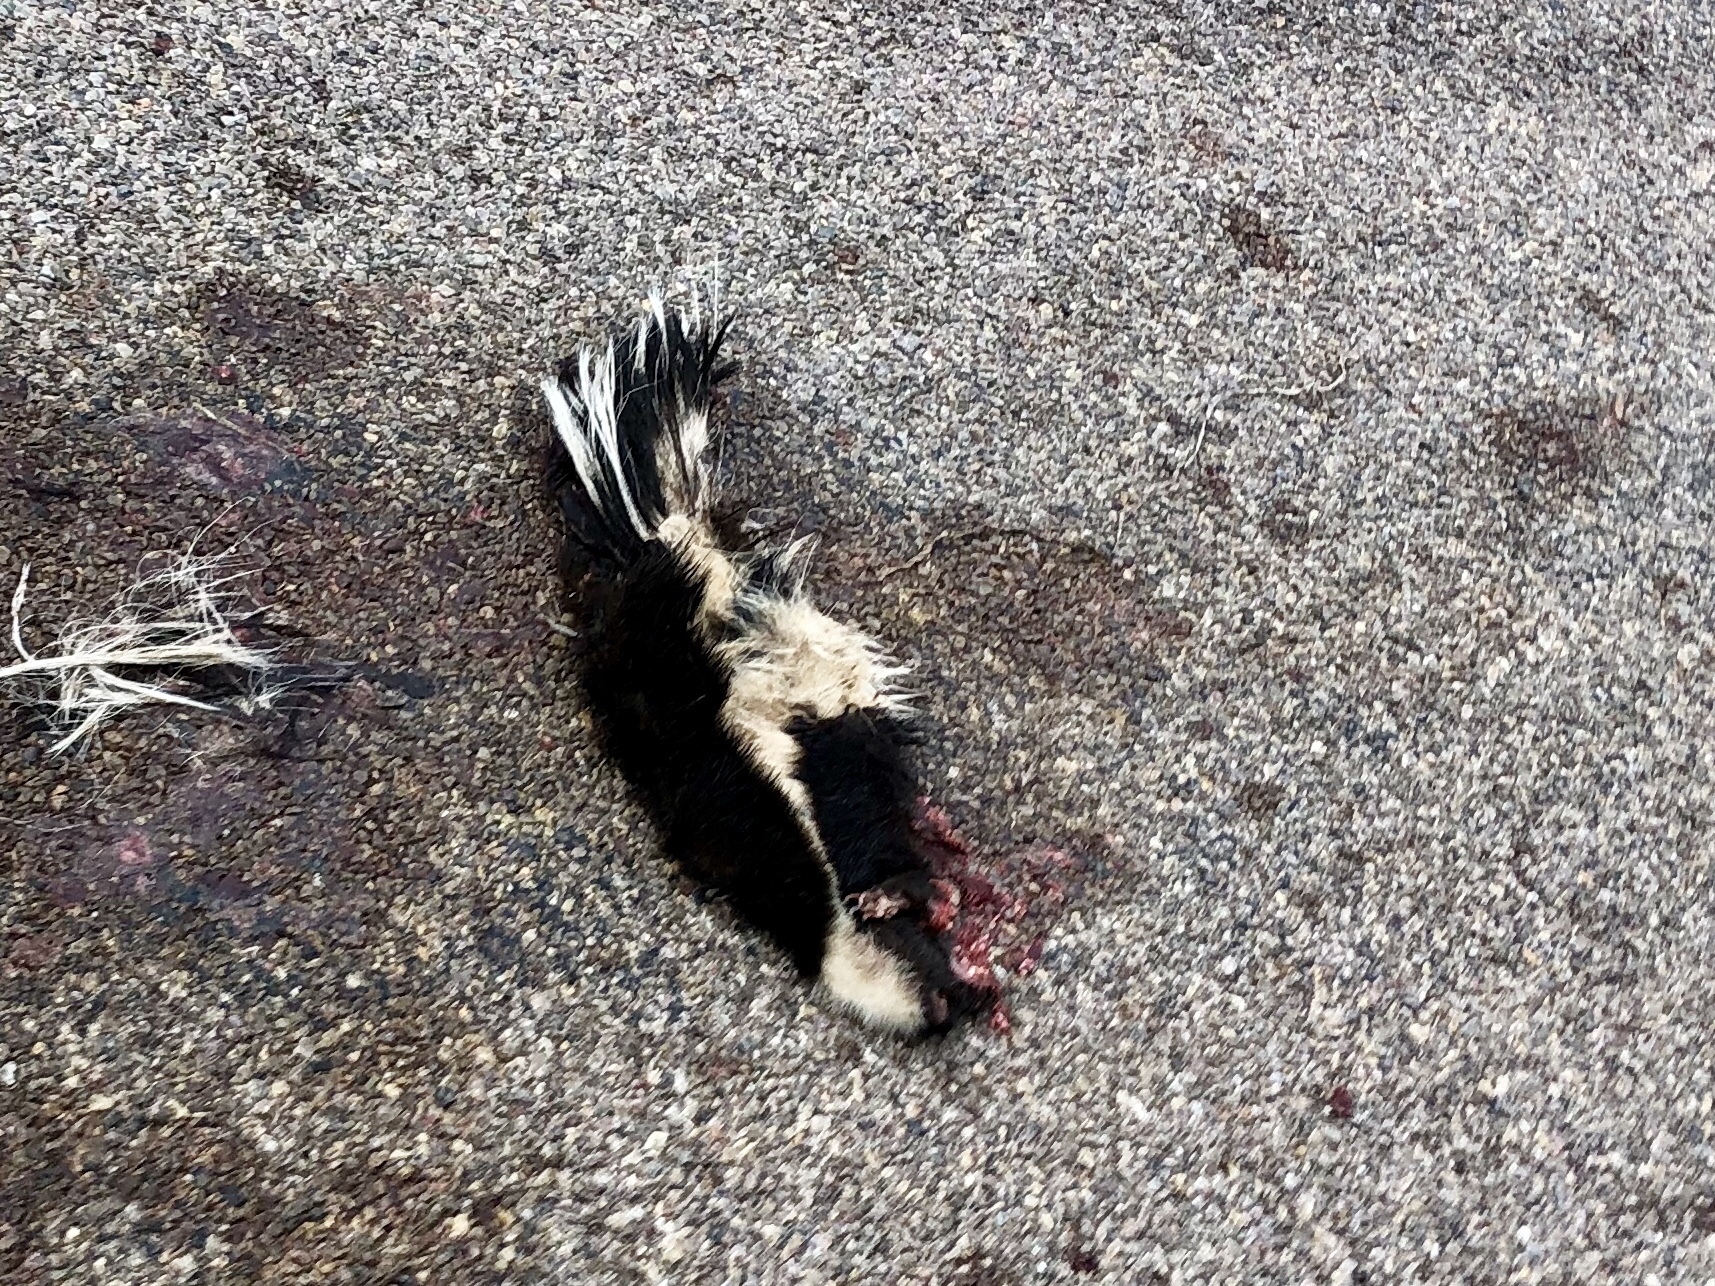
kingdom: Animalia
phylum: Chordata
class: Mammalia
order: Carnivora
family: Mephitidae
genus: Mephitis
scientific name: Mephitis mephitis
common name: Striped skunk
